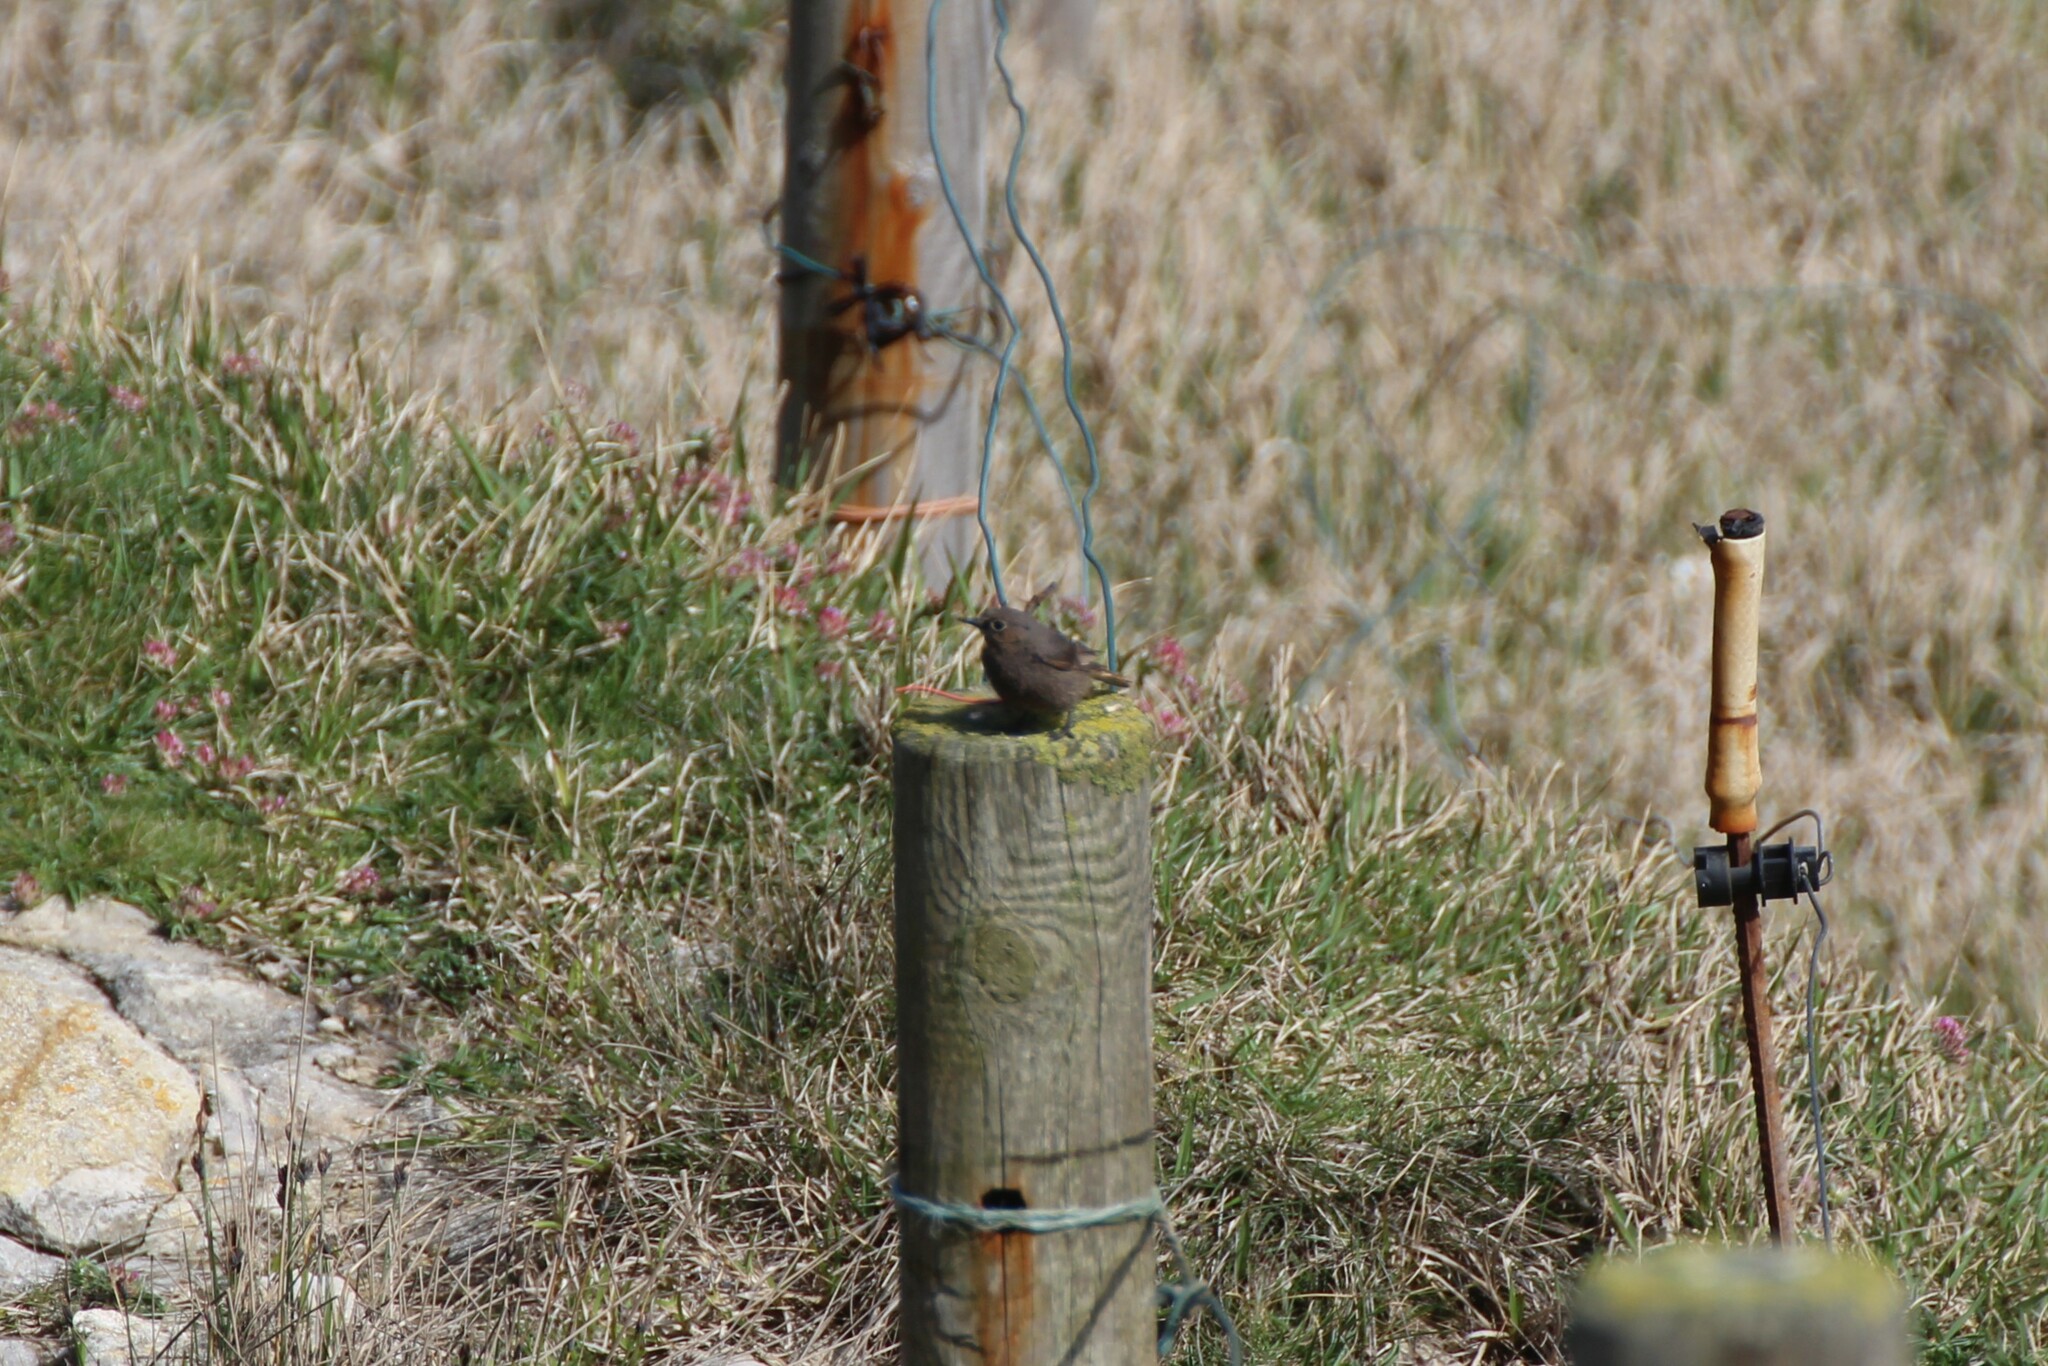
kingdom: Animalia
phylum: Chordata
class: Aves
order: Passeriformes
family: Muscicapidae
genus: Phoenicurus
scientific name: Phoenicurus ochruros
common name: Black redstart
